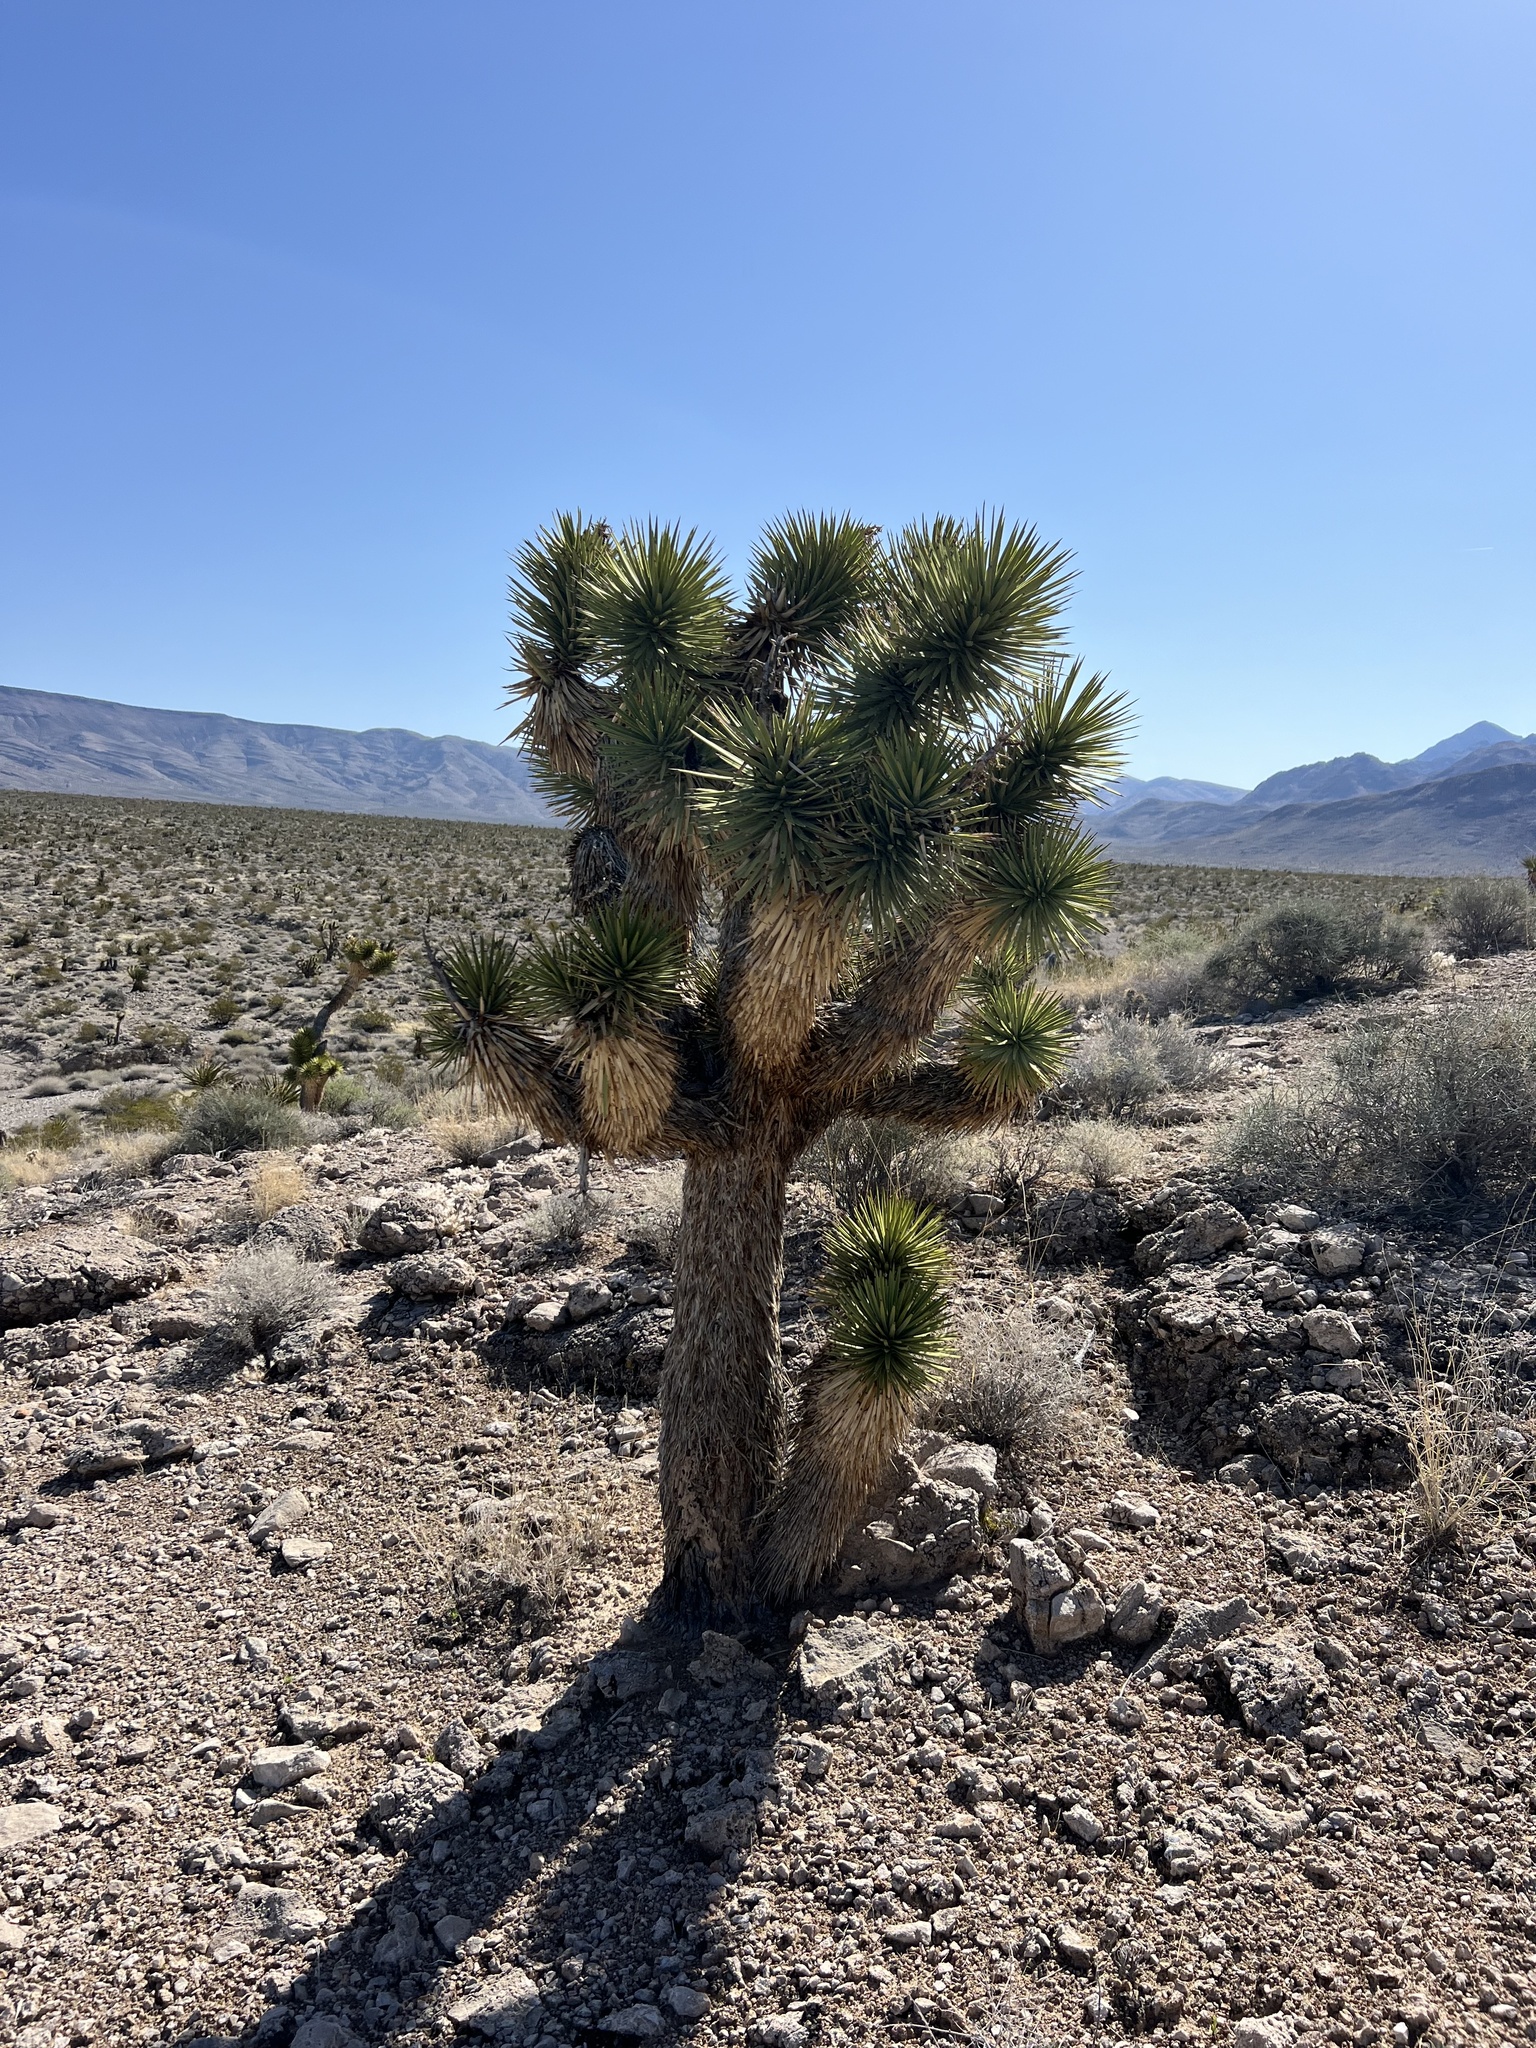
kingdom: Plantae
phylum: Tracheophyta
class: Liliopsida
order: Asparagales
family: Asparagaceae
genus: Yucca
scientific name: Yucca brevifolia
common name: Joshua tree
